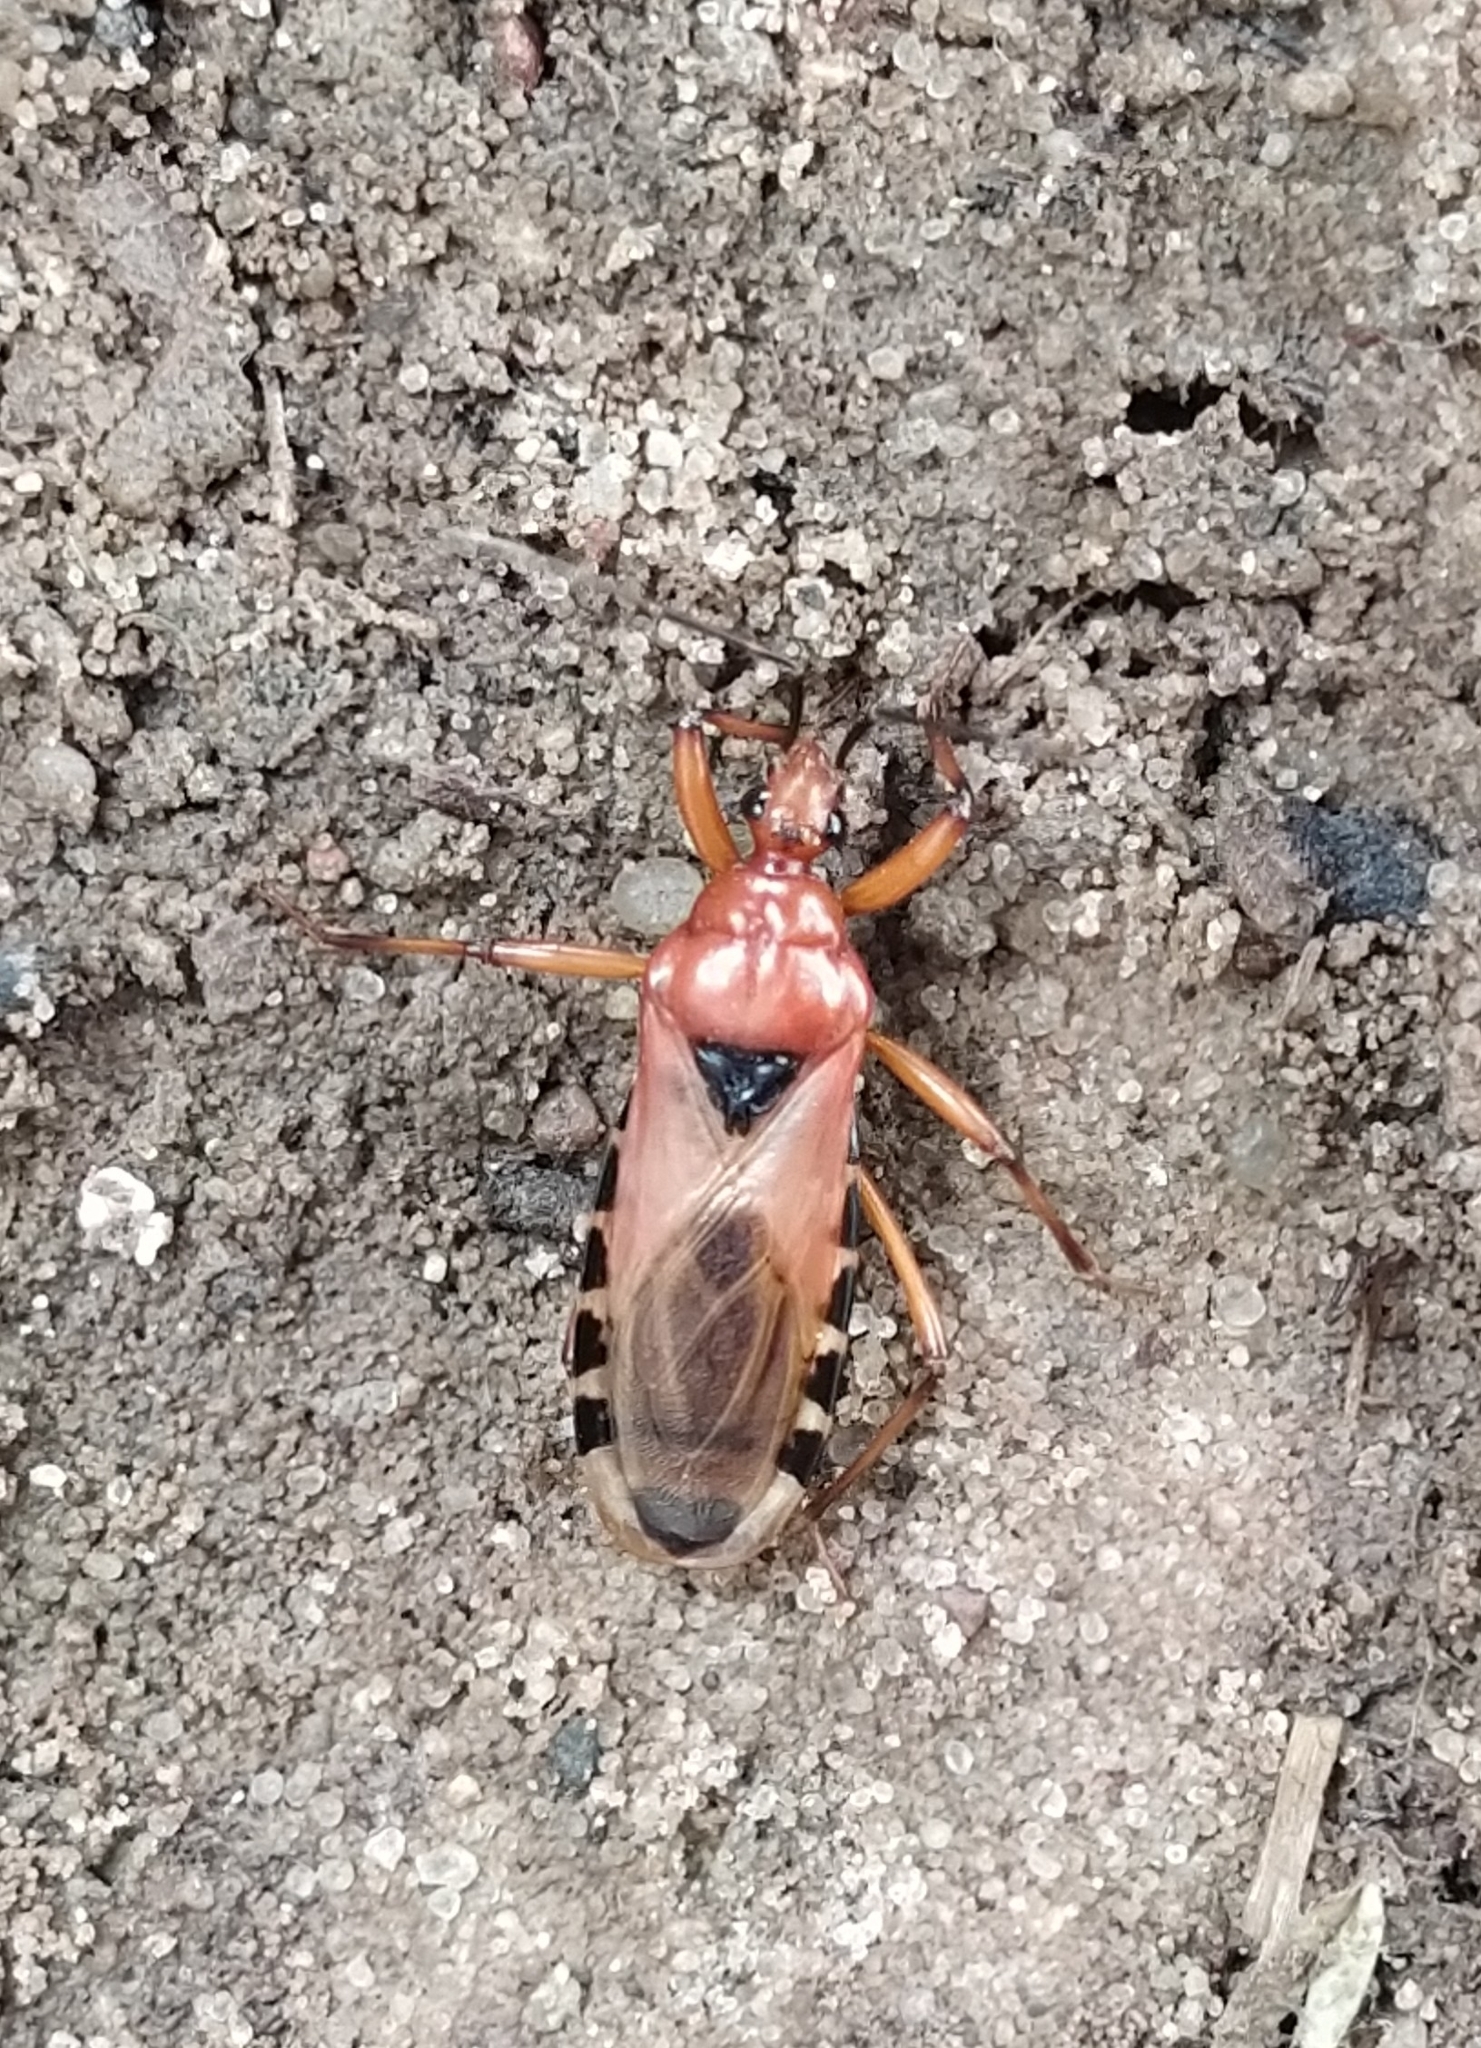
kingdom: Animalia
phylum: Arthropoda
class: Insecta
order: Hemiptera
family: Reduviidae
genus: Brontostoma
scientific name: Brontostoma rubrum
